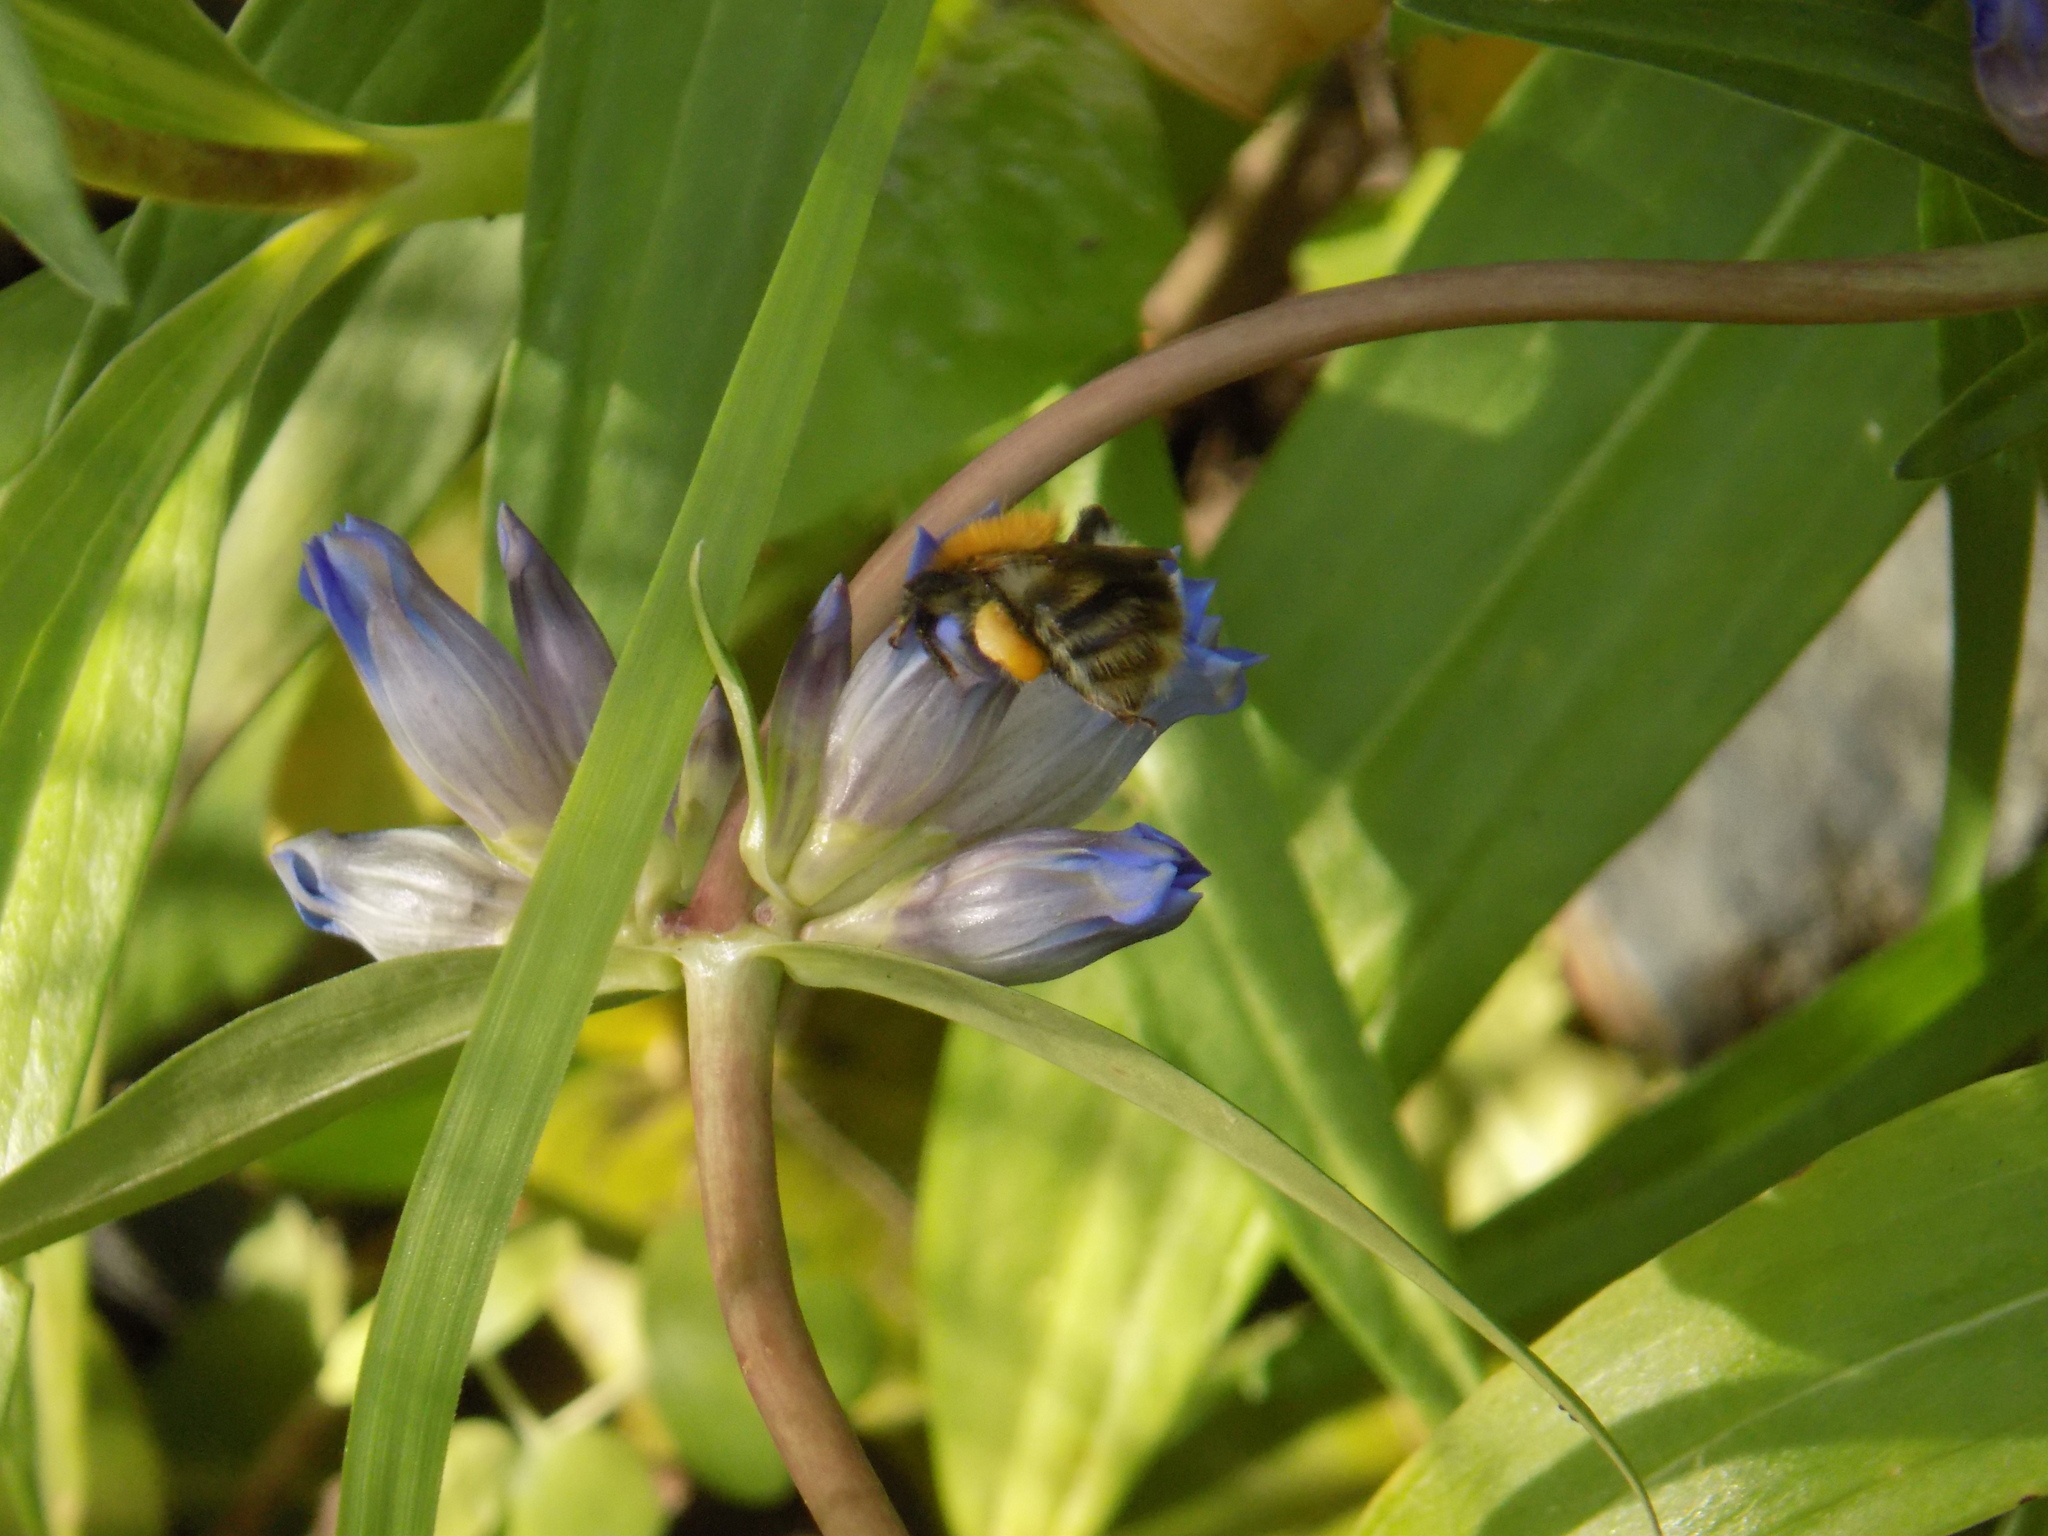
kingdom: Animalia
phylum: Arthropoda
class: Insecta
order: Hymenoptera
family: Apidae
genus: Bombus
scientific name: Bombus pascuorum
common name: Common carder bee
